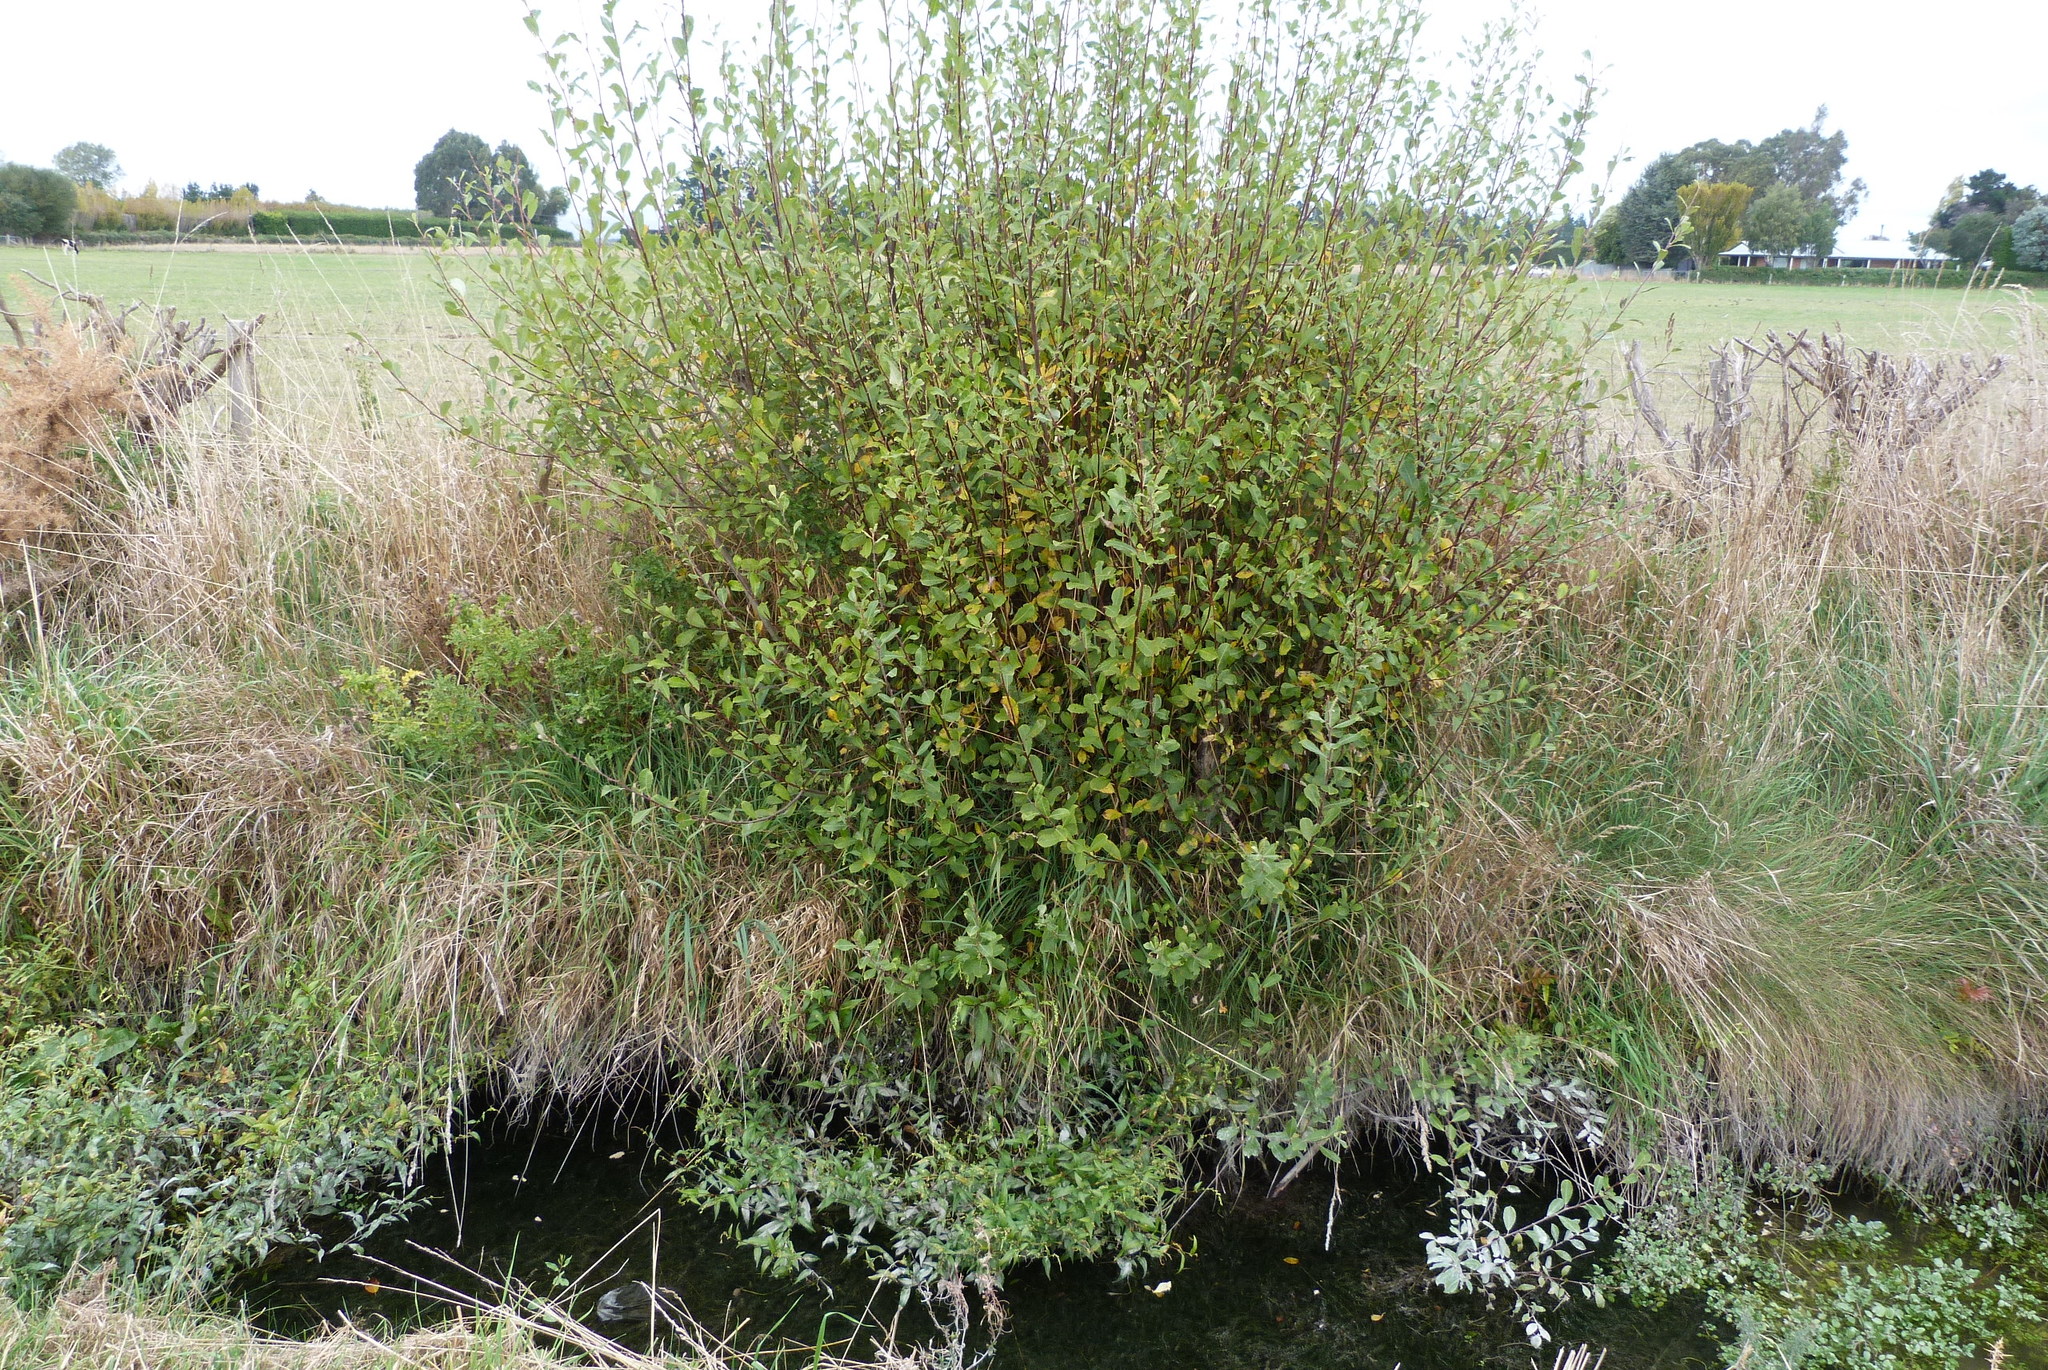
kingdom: Plantae
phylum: Tracheophyta
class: Magnoliopsida
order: Malpighiales
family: Salicaceae
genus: Salix
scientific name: Salix cinerea
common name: Common sallow
